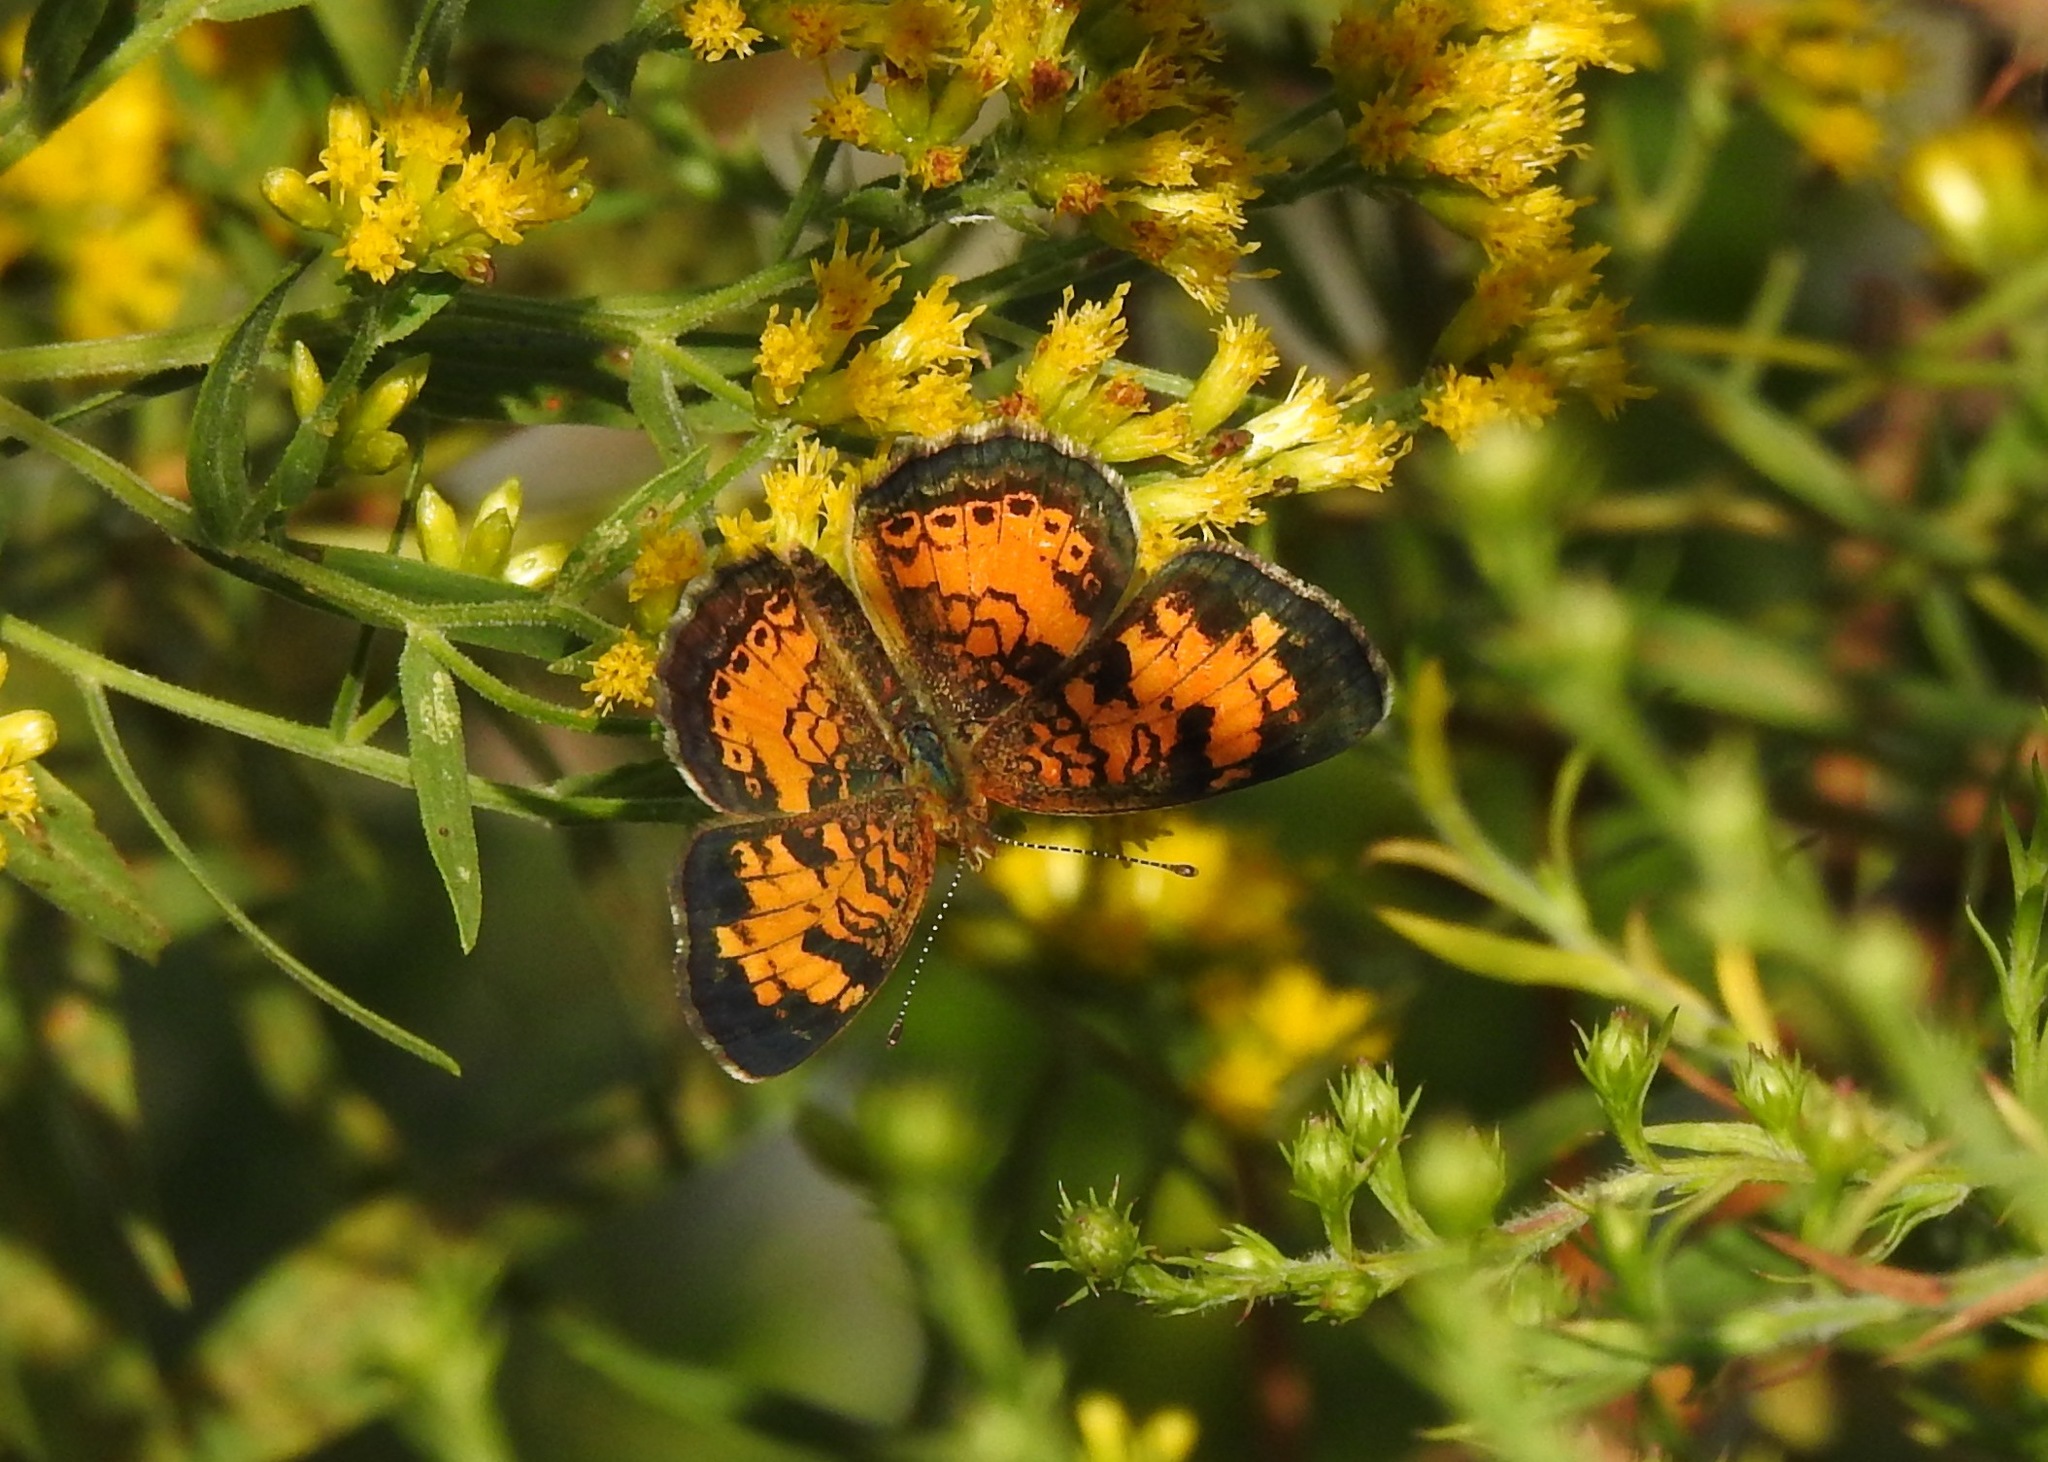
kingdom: Animalia
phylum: Arthropoda
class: Insecta
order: Lepidoptera
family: Nymphalidae
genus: Phyciodes
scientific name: Phyciodes tharos
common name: Pearl crescent
